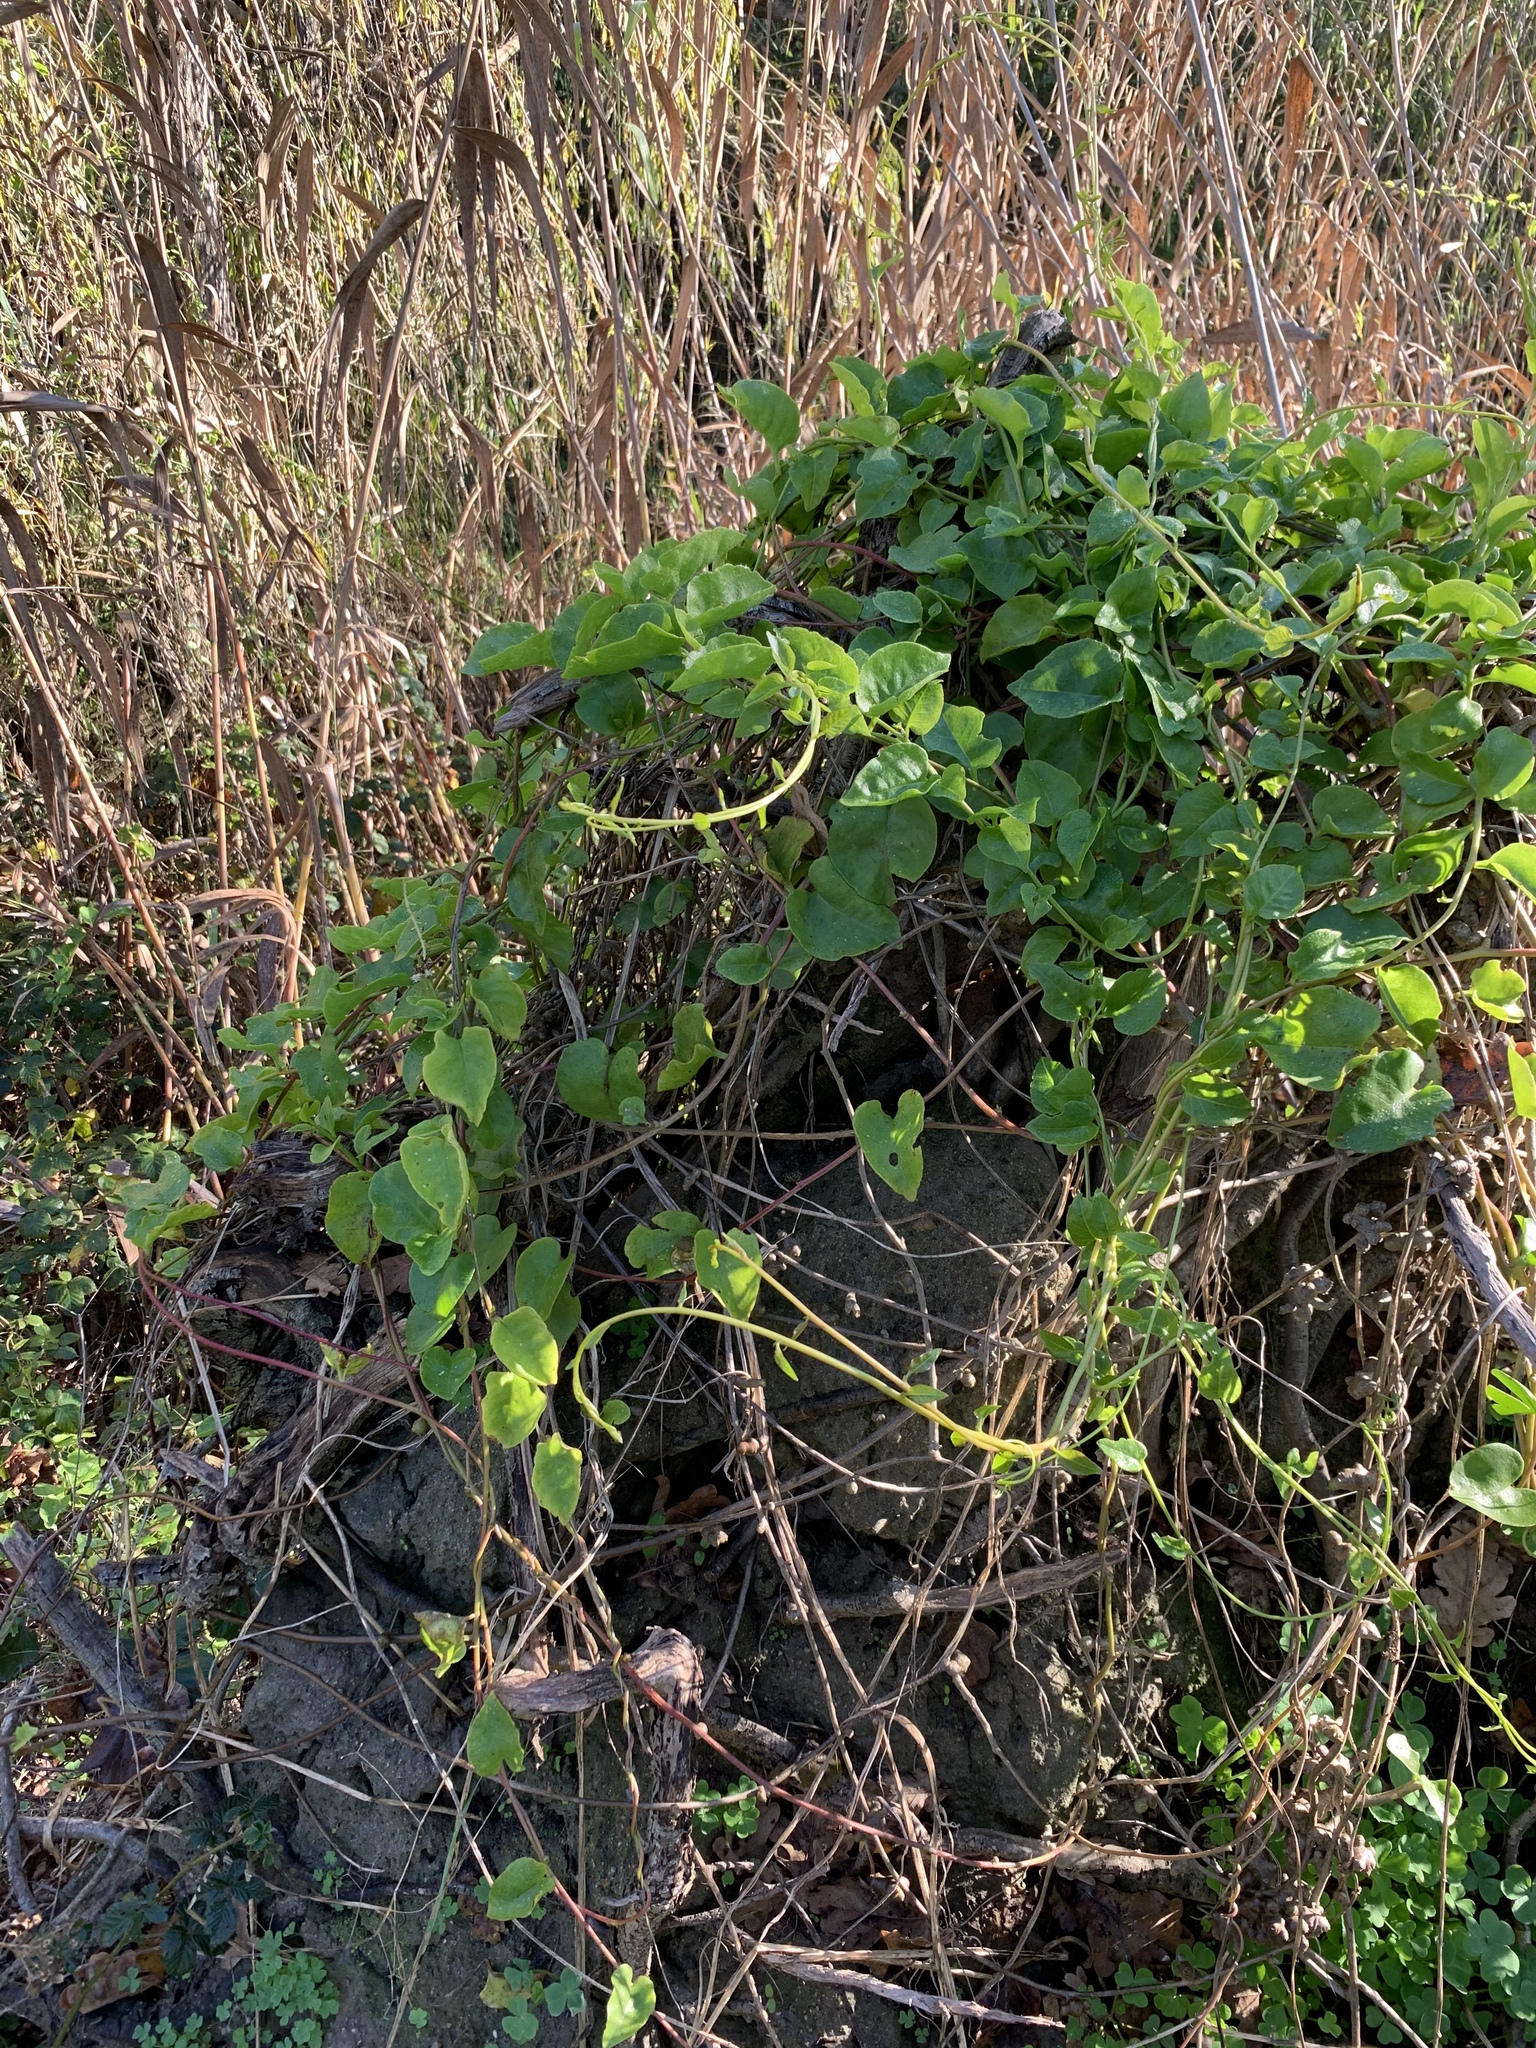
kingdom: Plantae
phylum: Tracheophyta
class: Magnoliopsida
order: Caryophyllales
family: Basellaceae
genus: Anredera
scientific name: Anredera cordifolia
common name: Heartleaf madeiravine
